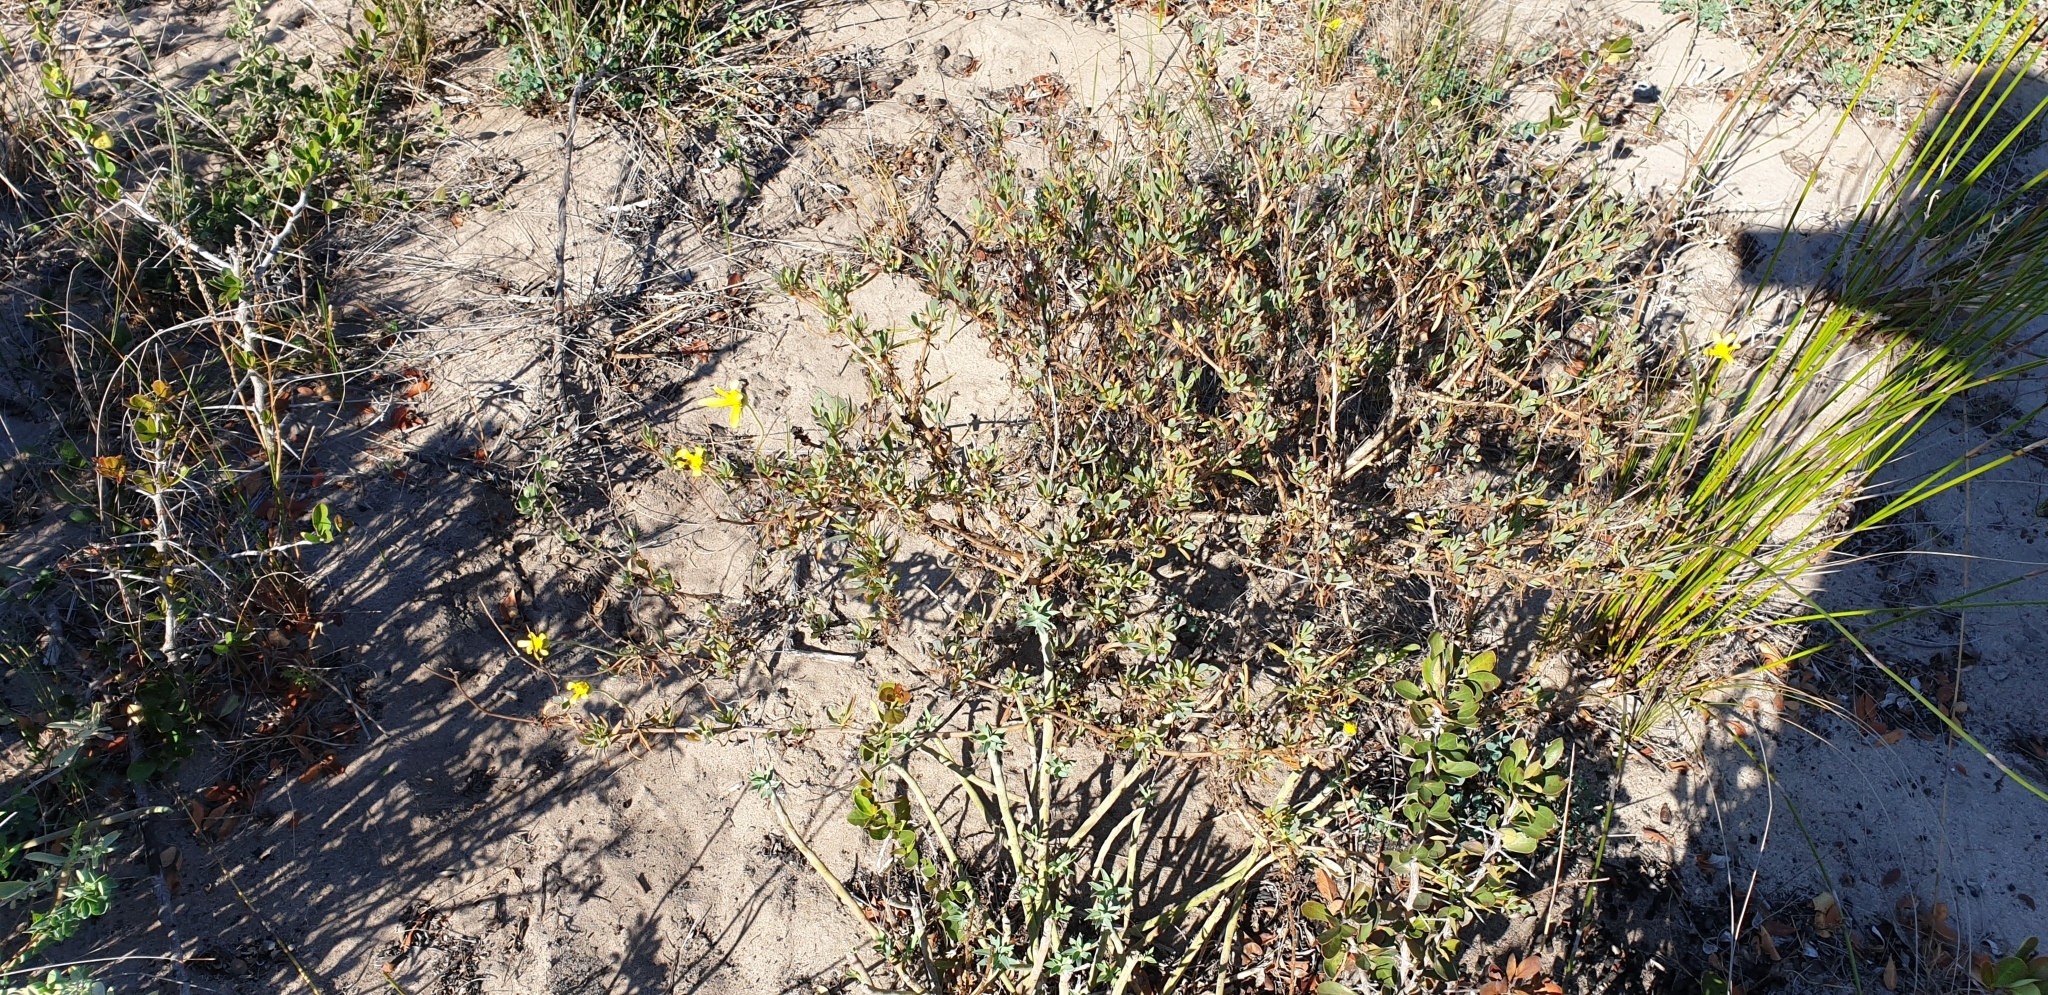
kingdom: Plantae
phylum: Tracheophyta
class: Magnoliopsida
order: Asterales
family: Asteraceae
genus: Othonna
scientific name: Othonna coronopifolia
